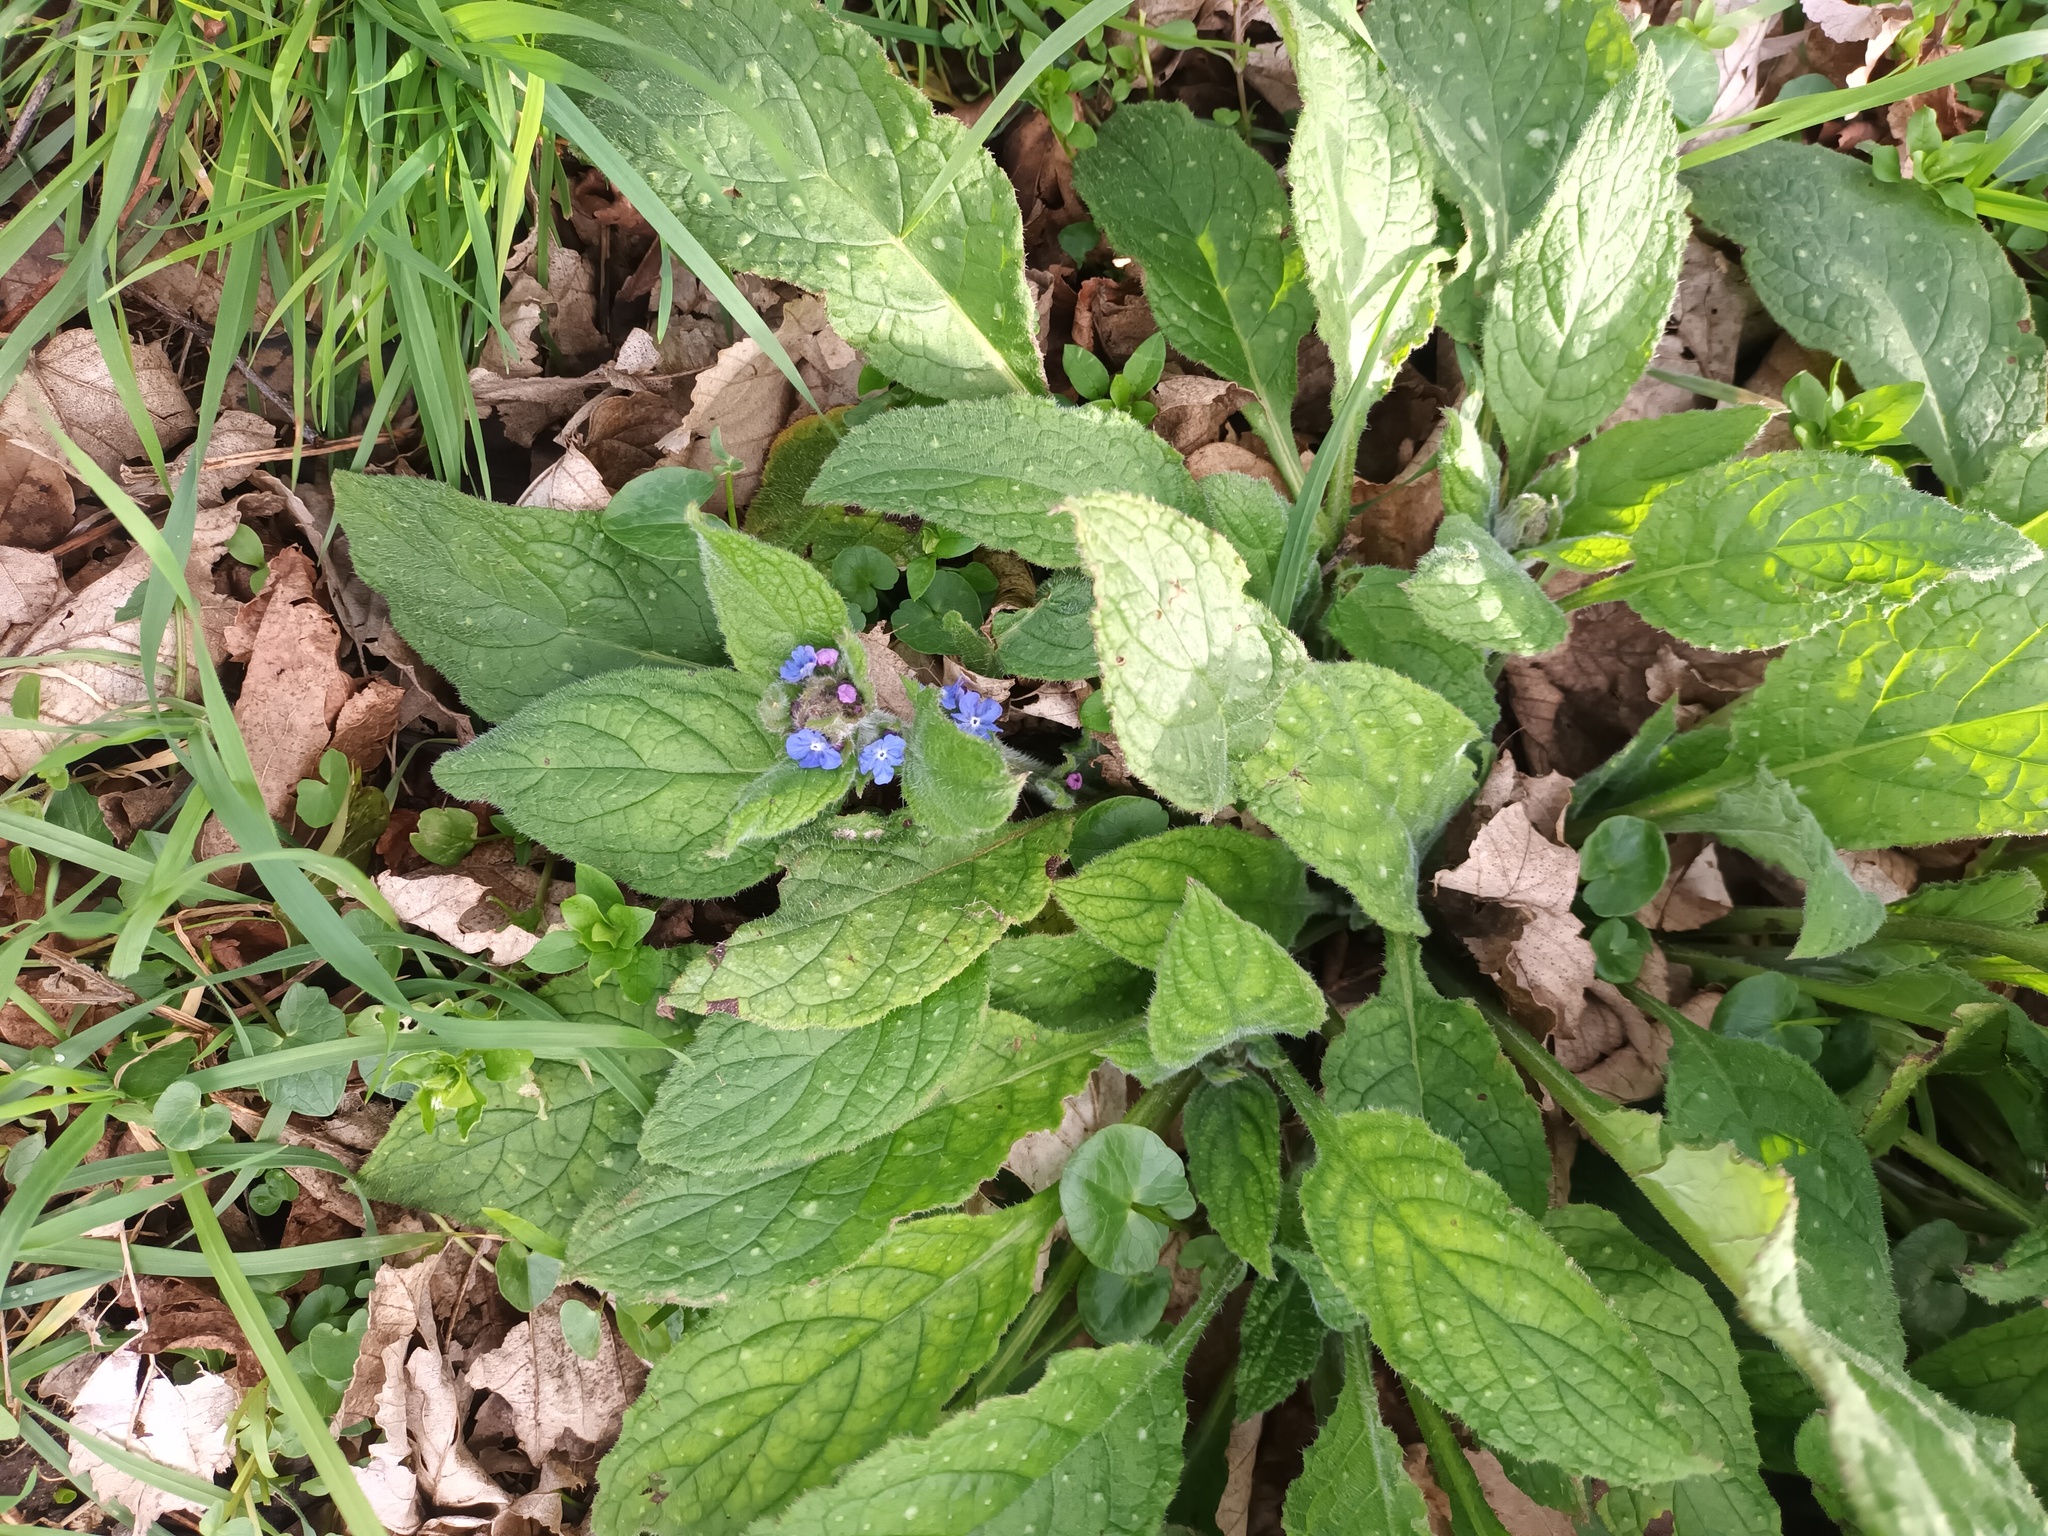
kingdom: Plantae
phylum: Tracheophyta
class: Magnoliopsida
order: Boraginales
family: Boraginaceae
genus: Pentaglottis
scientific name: Pentaglottis sempervirens
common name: Green alkanet
